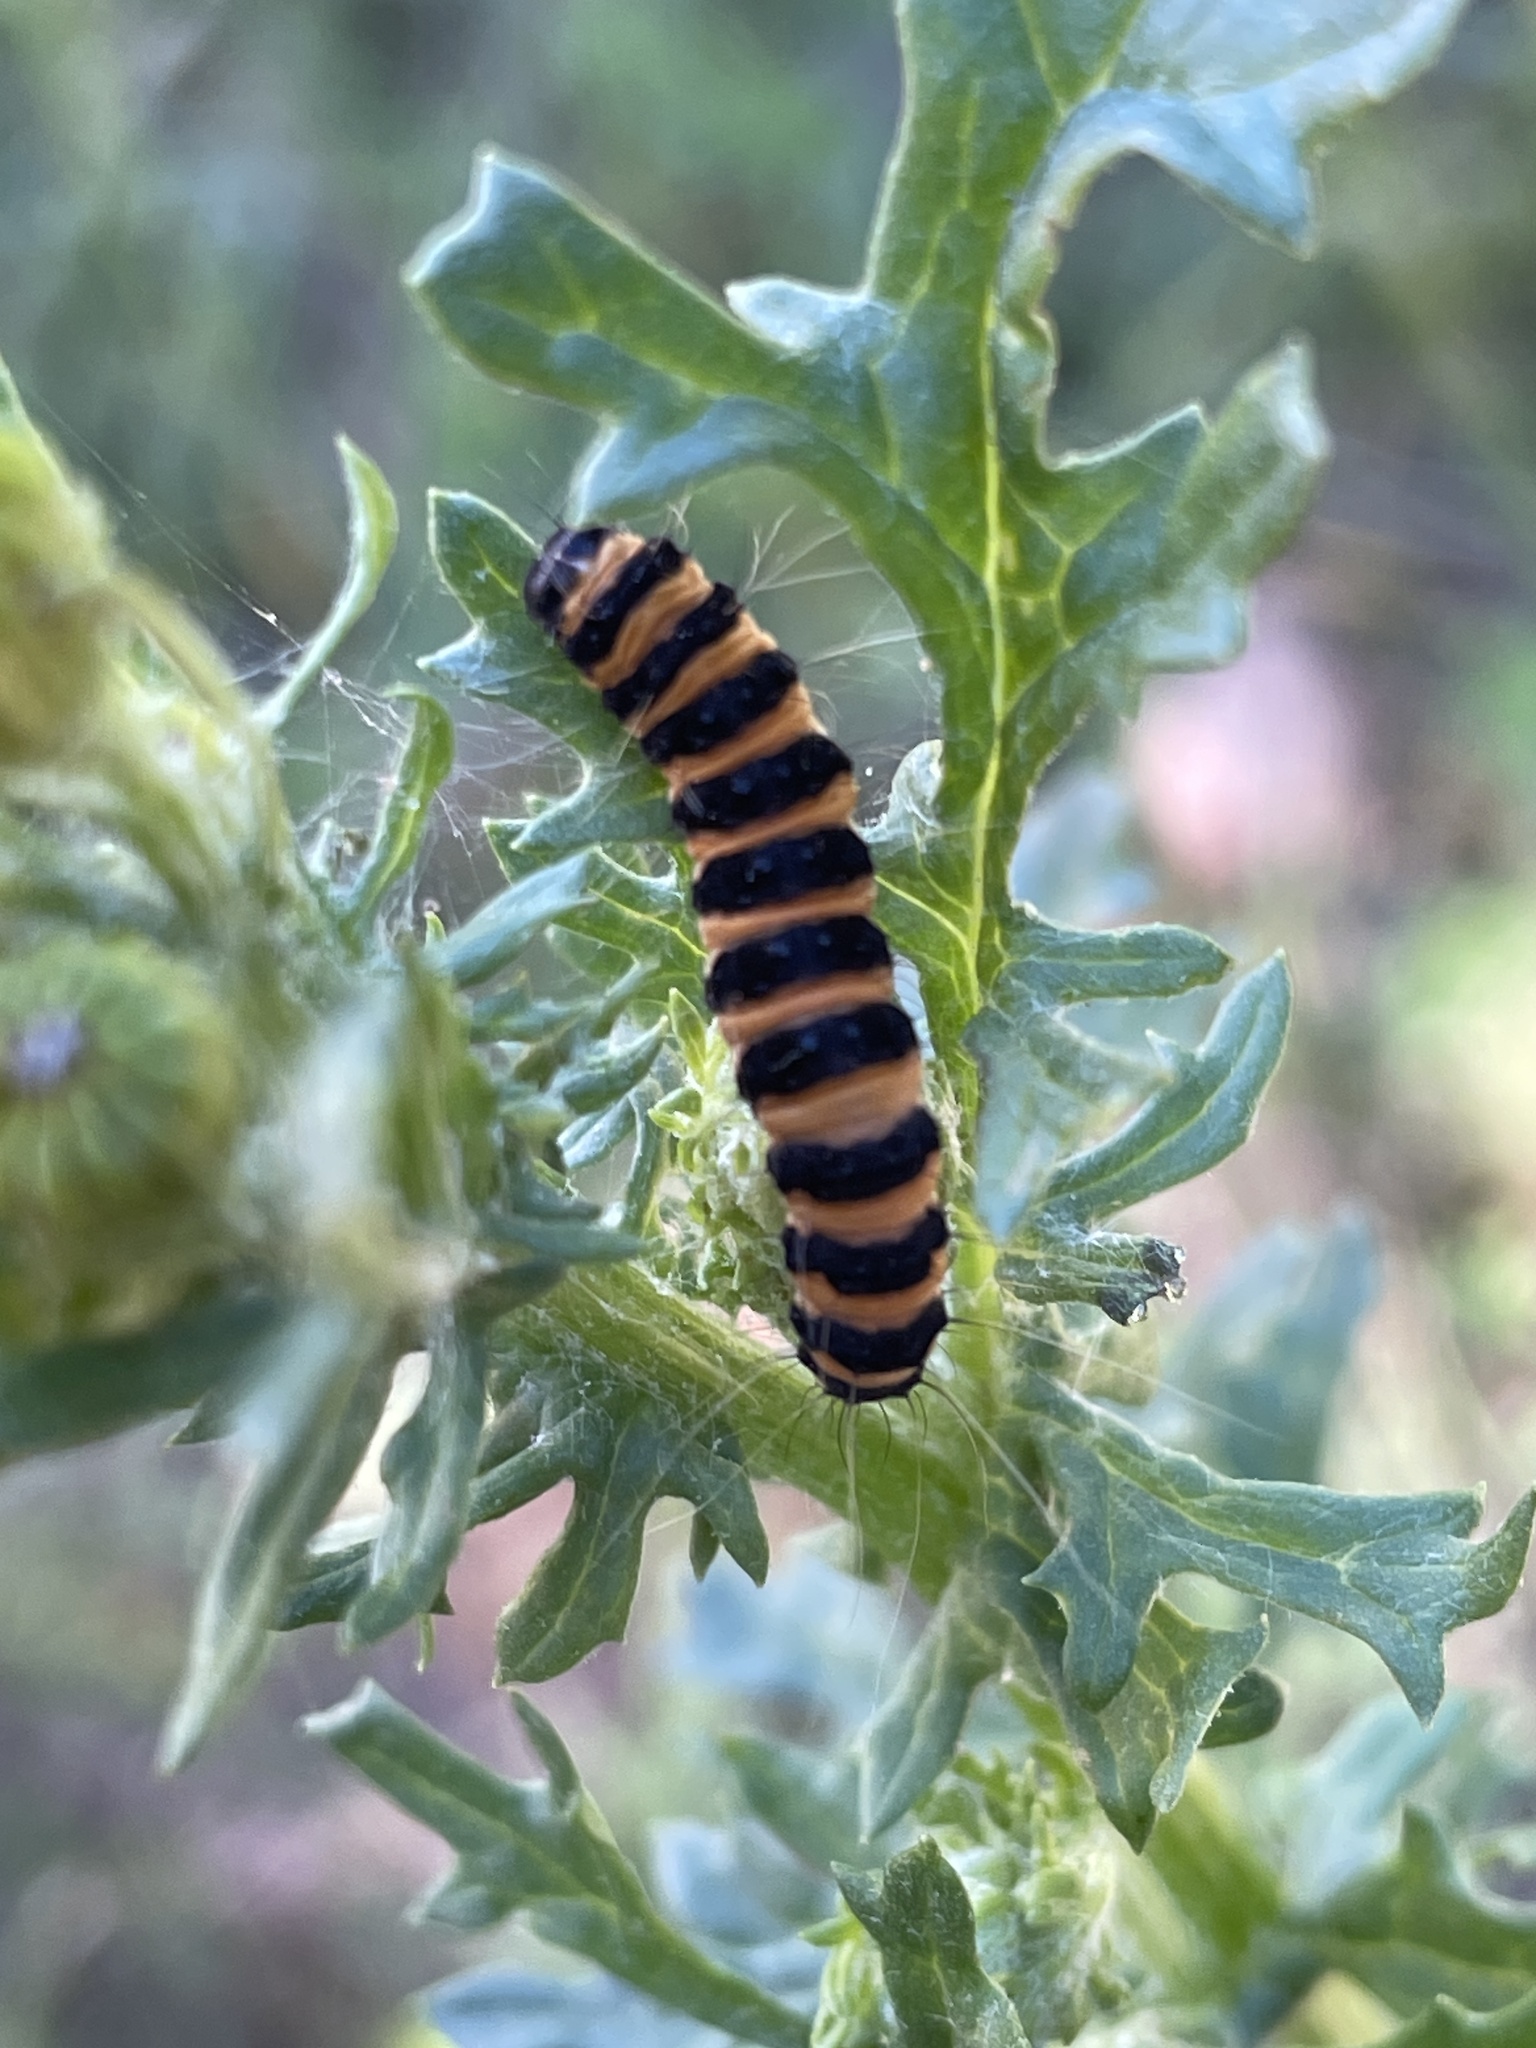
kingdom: Animalia
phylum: Arthropoda
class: Insecta
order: Lepidoptera
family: Erebidae
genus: Tyria
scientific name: Tyria jacobaeae
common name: Cinnabar
